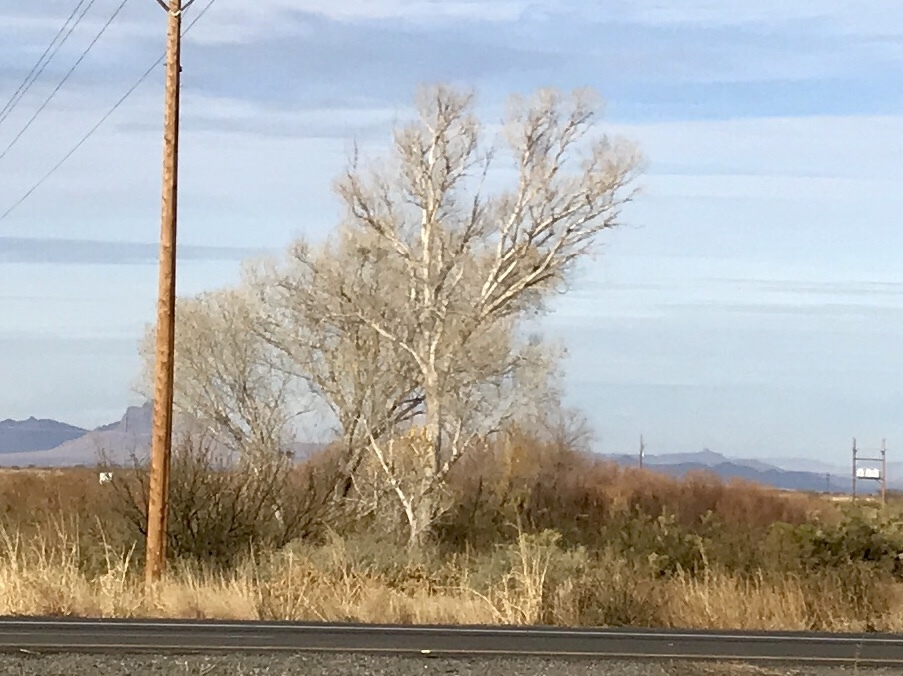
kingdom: Plantae
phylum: Tracheophyta
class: Magnoliopsida
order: Malpighiales
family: Salicaceae
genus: Populus
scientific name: Populus fremontii
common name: Fremont's cottonwood
